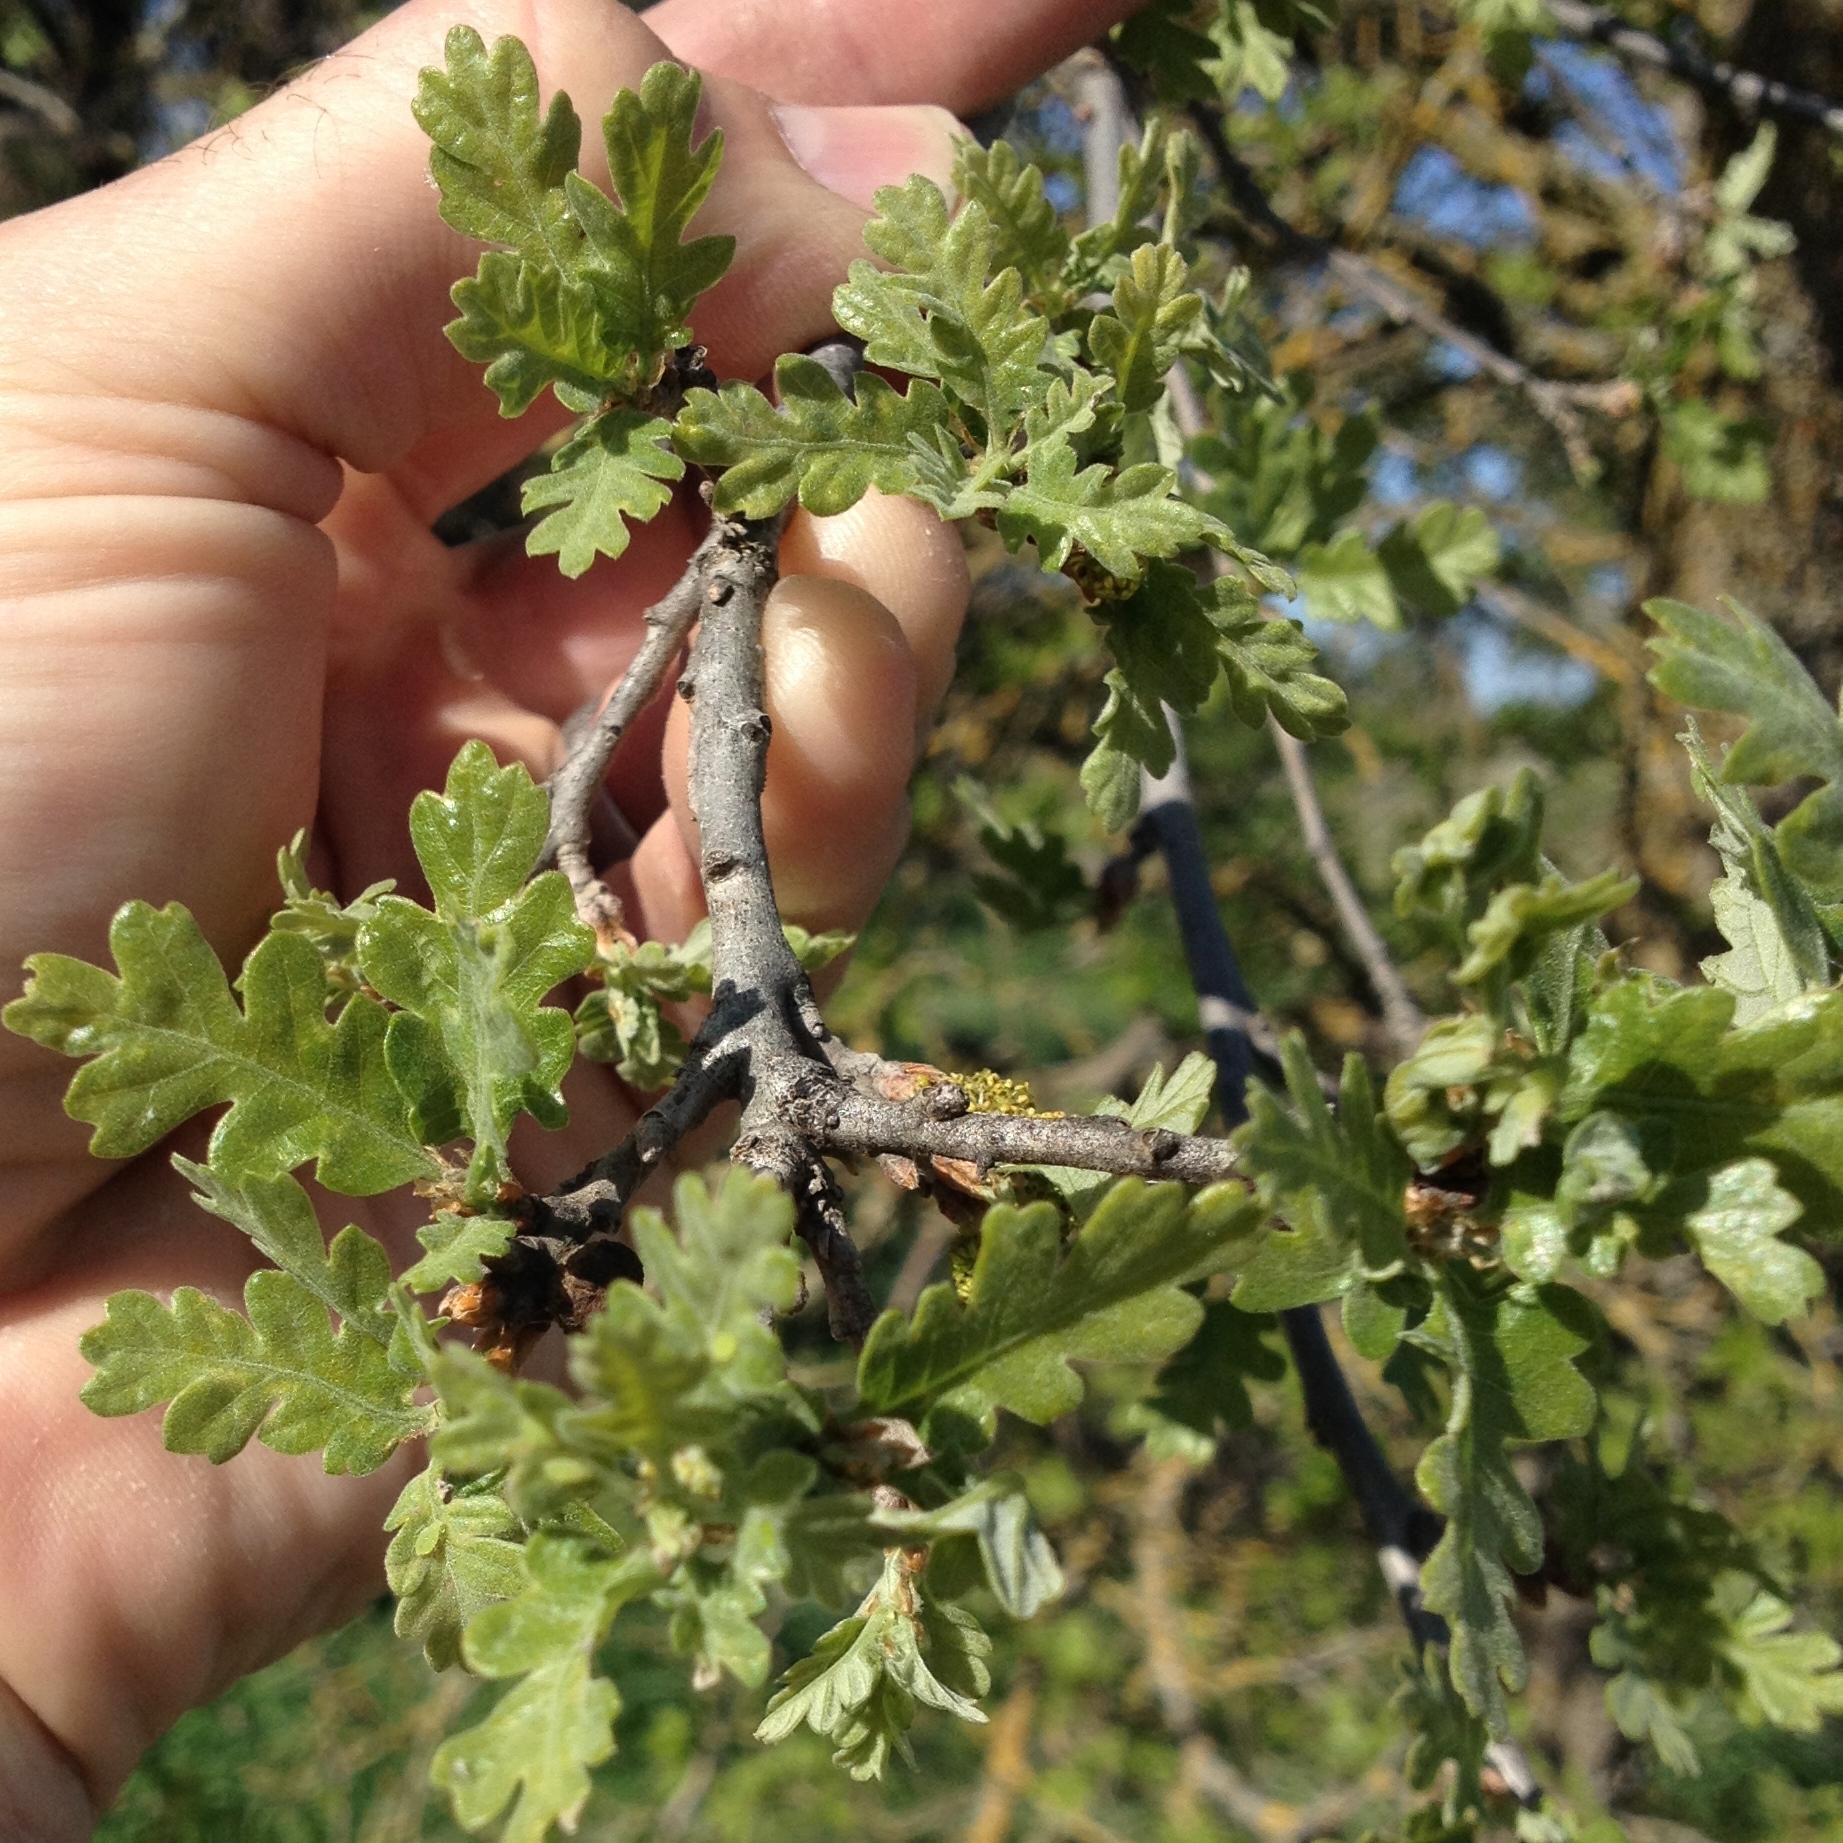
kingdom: Plantae
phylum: Tracheophyta
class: Magnoliopsida
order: Fagales
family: Fagaceae
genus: Quercus
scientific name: Quercus lobata
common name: Valley oak
